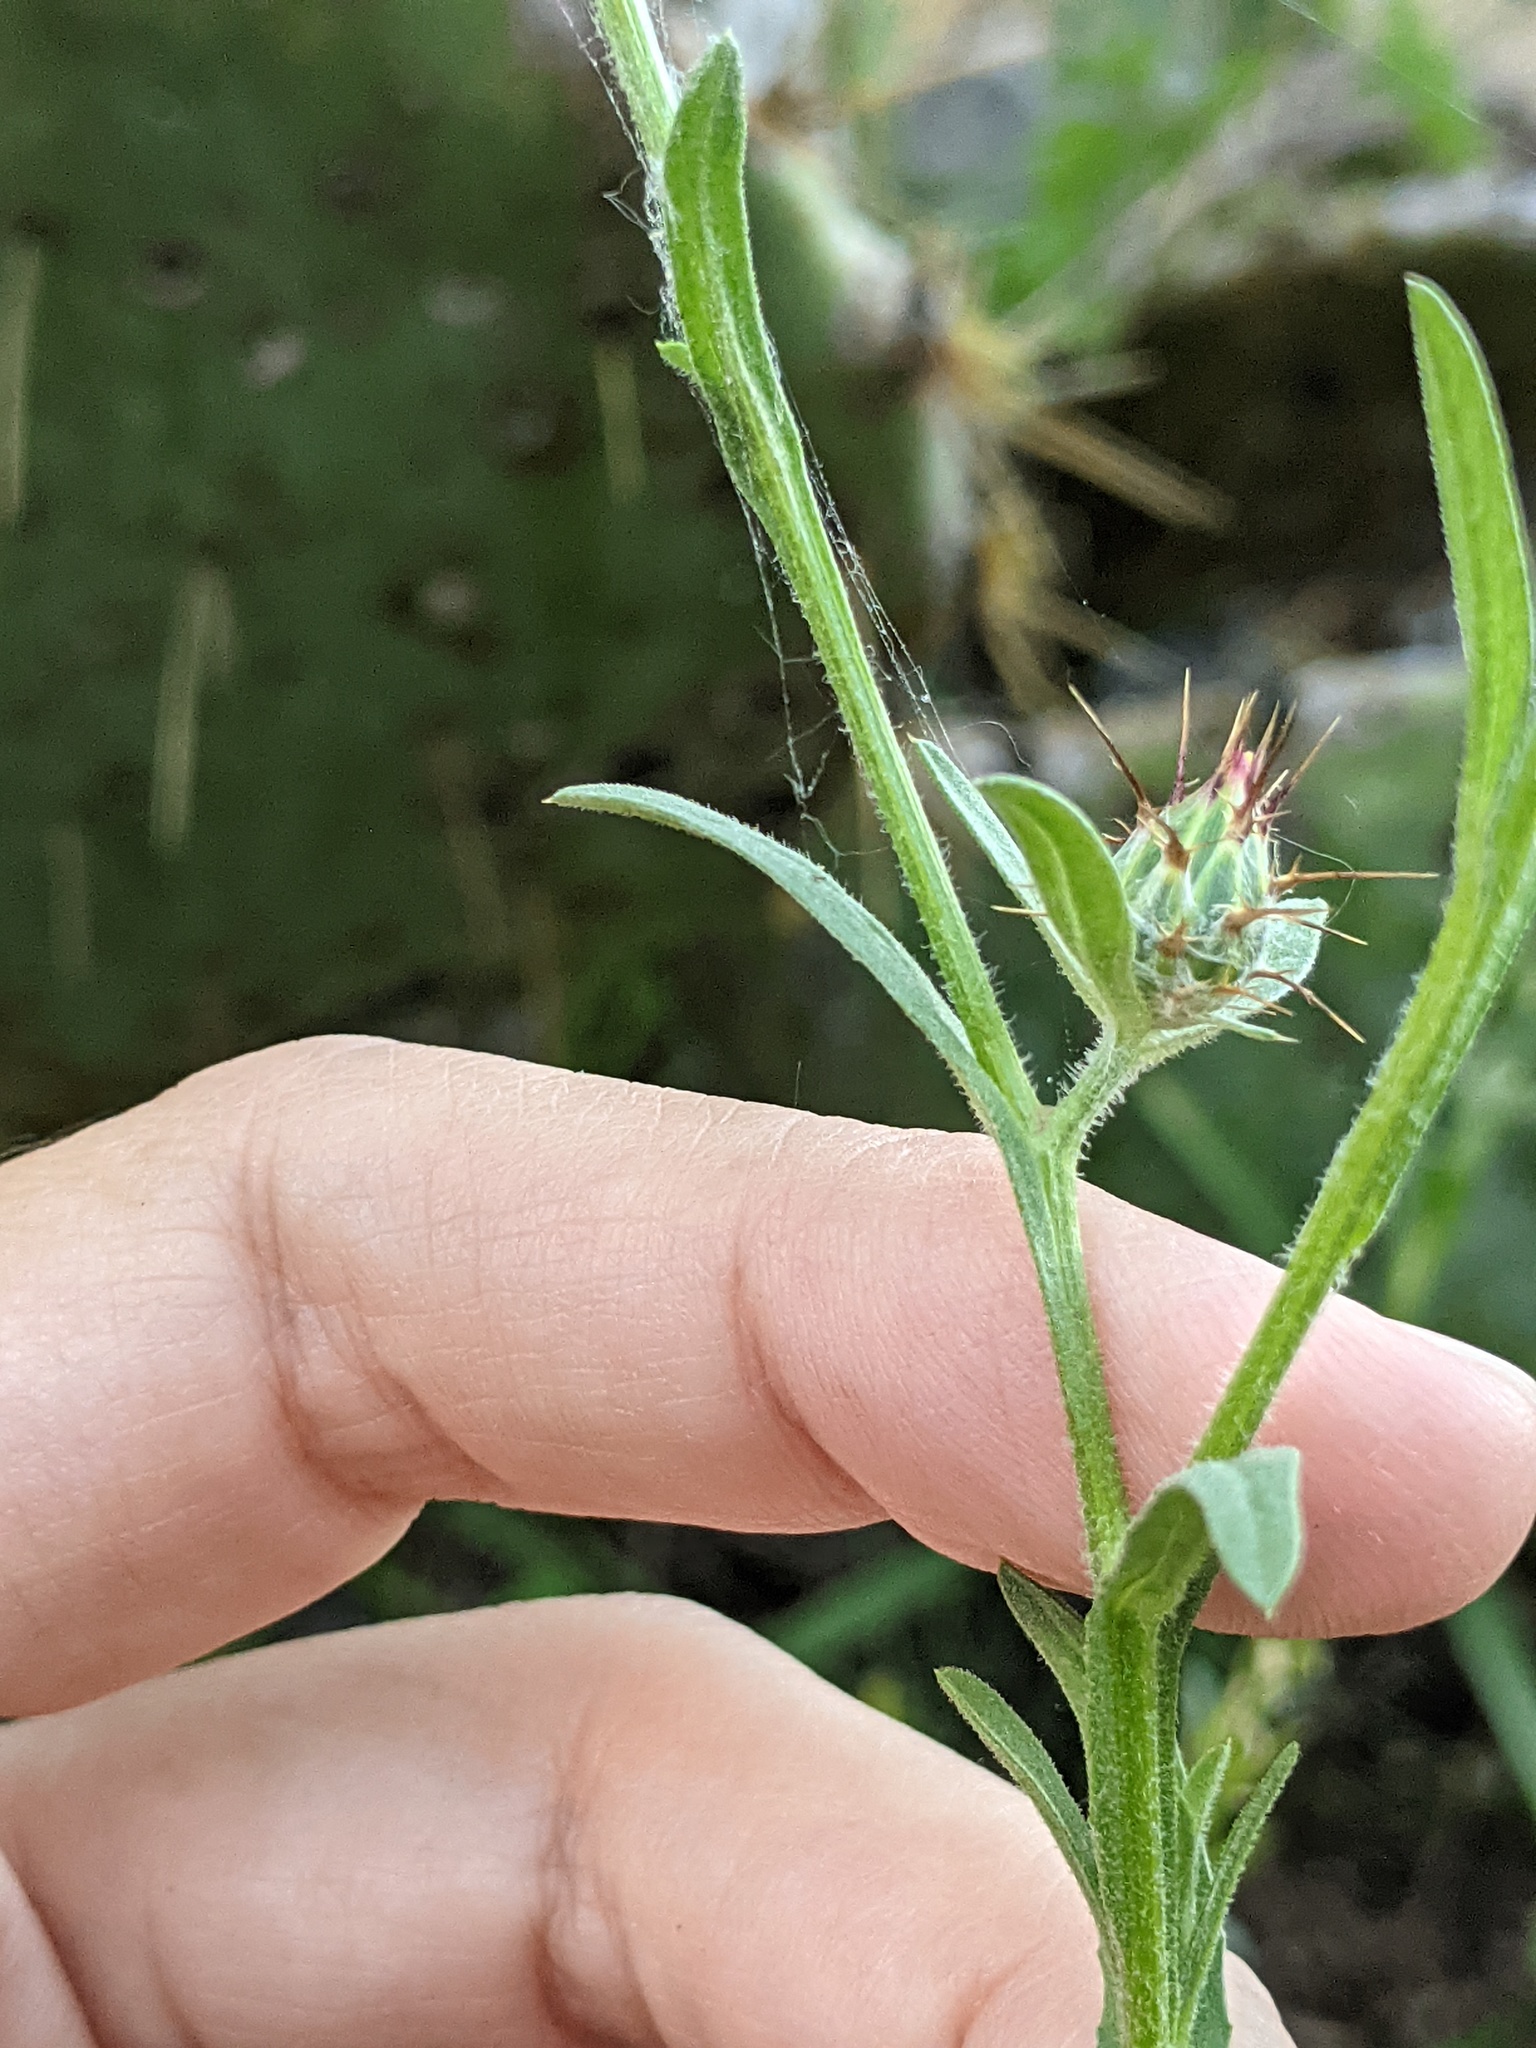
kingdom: Plantae
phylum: Tracheophyta
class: Magnoliopsida
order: Asterales
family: Asteraceae
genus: Centaurea
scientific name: Centaurea melitensis
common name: Maltese star-thistle
